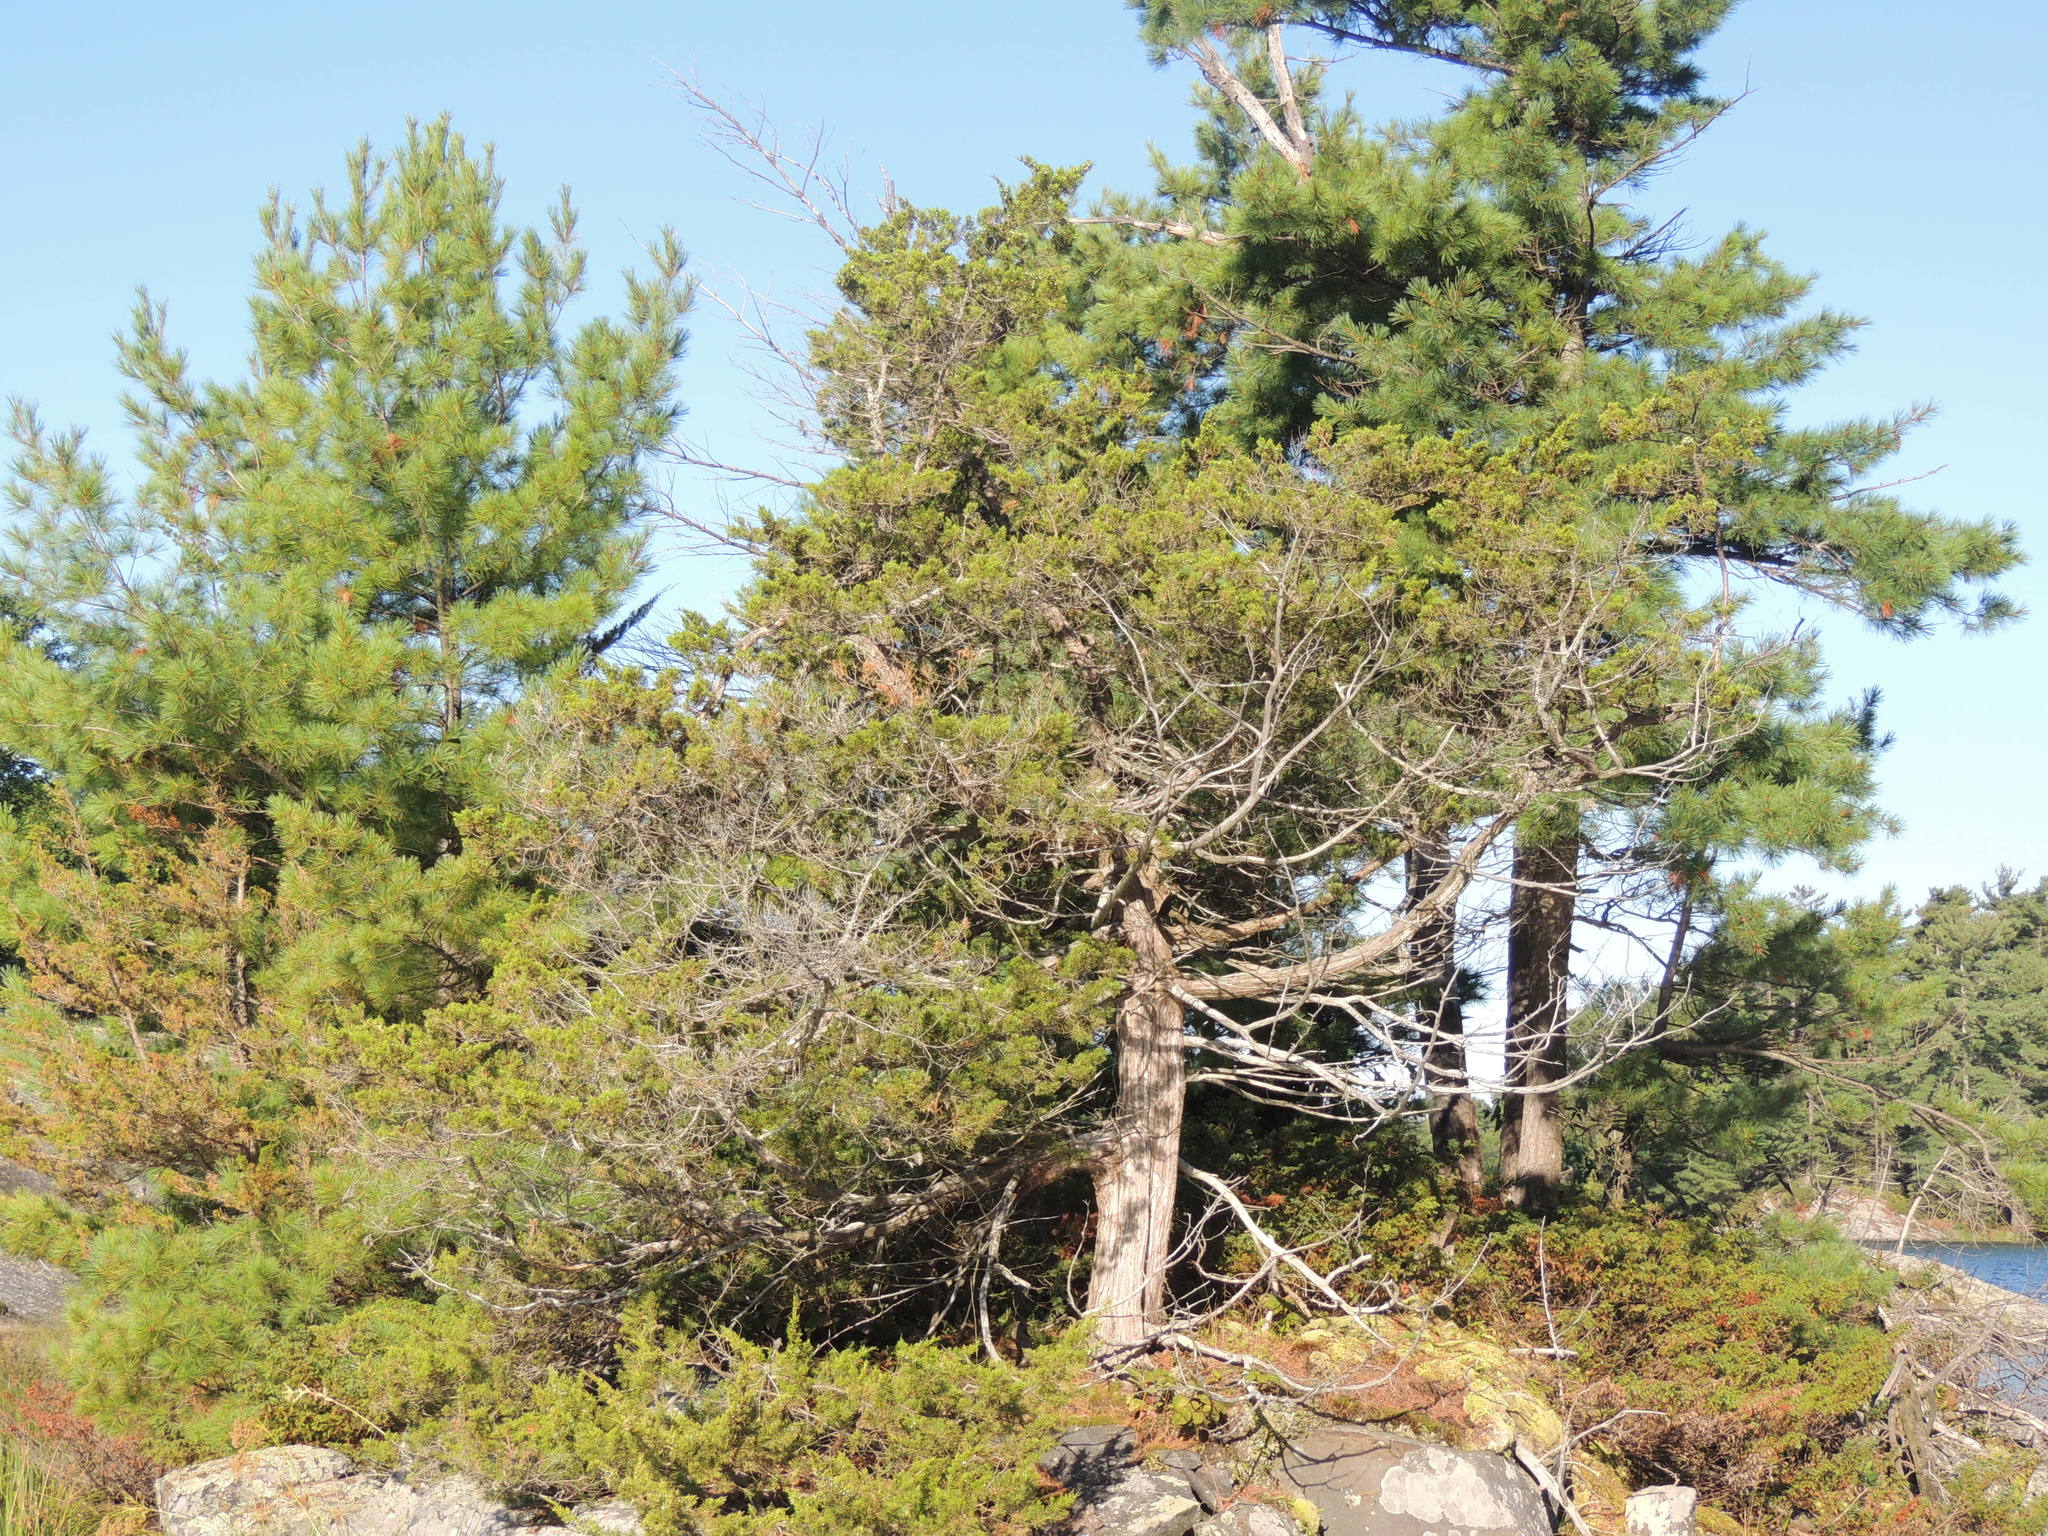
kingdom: Plantae
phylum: Tracheophyta
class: Pinopsida
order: Pinales
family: Cupressaceae
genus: Juniperus
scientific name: Juniperus virginiana
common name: Red juniper
